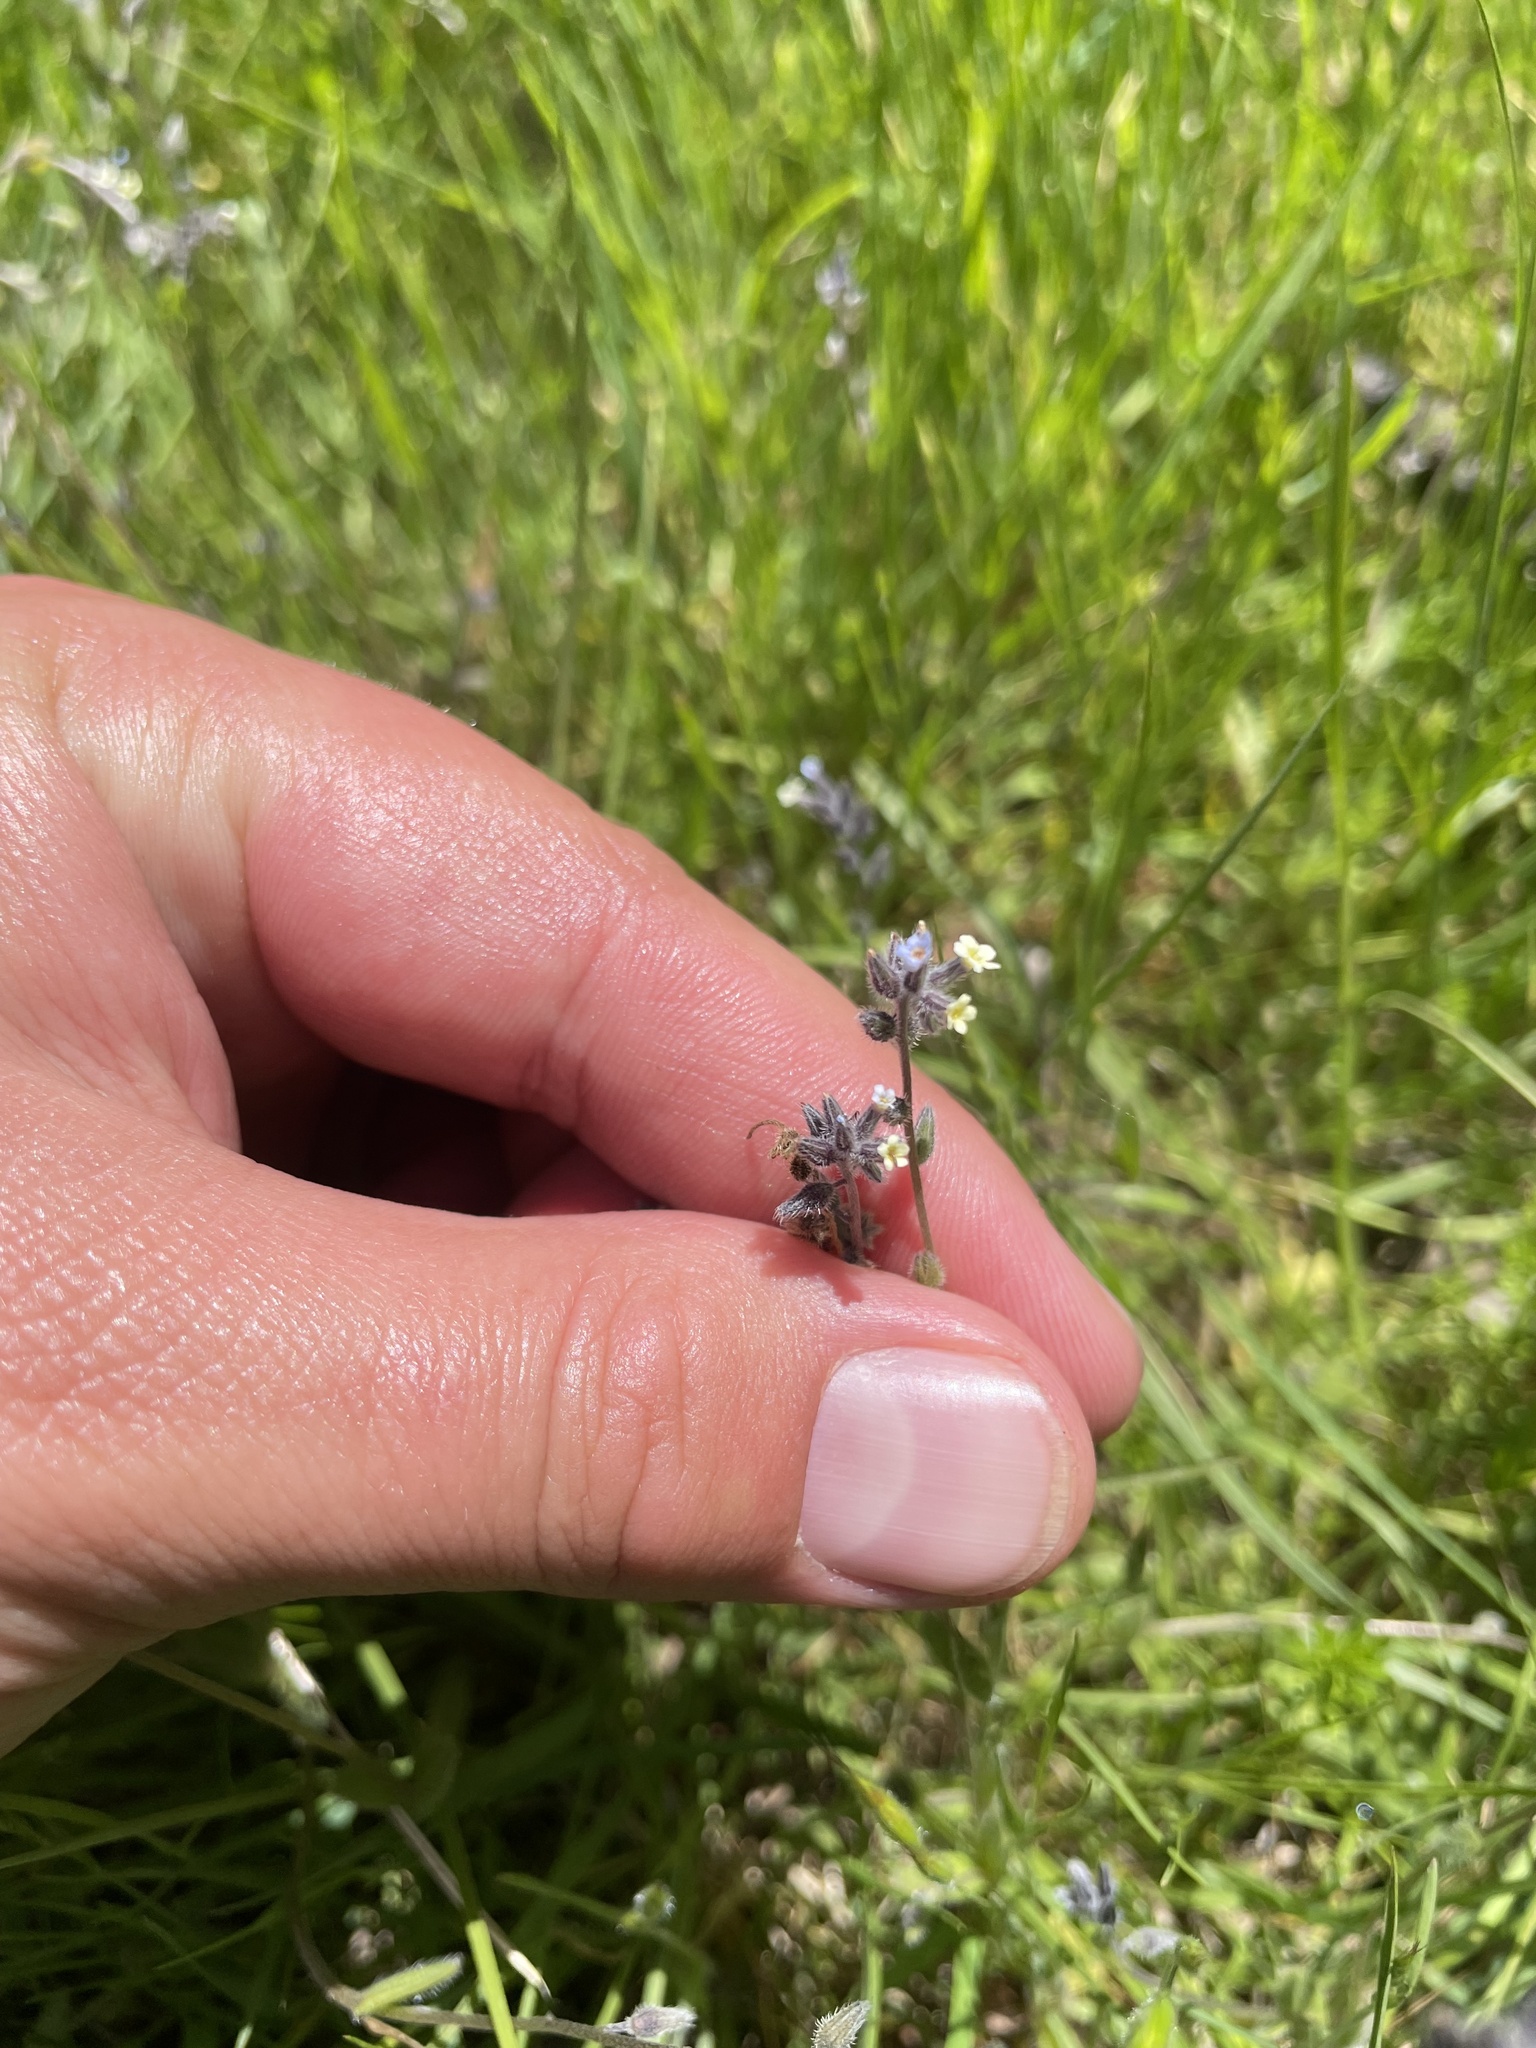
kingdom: Plantae
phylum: Tracheophyta
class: Magnoliopsida
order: Boraginales
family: Boraginaceae
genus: Myosotis
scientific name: Myosotis discolor
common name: Changing forget-me-not
